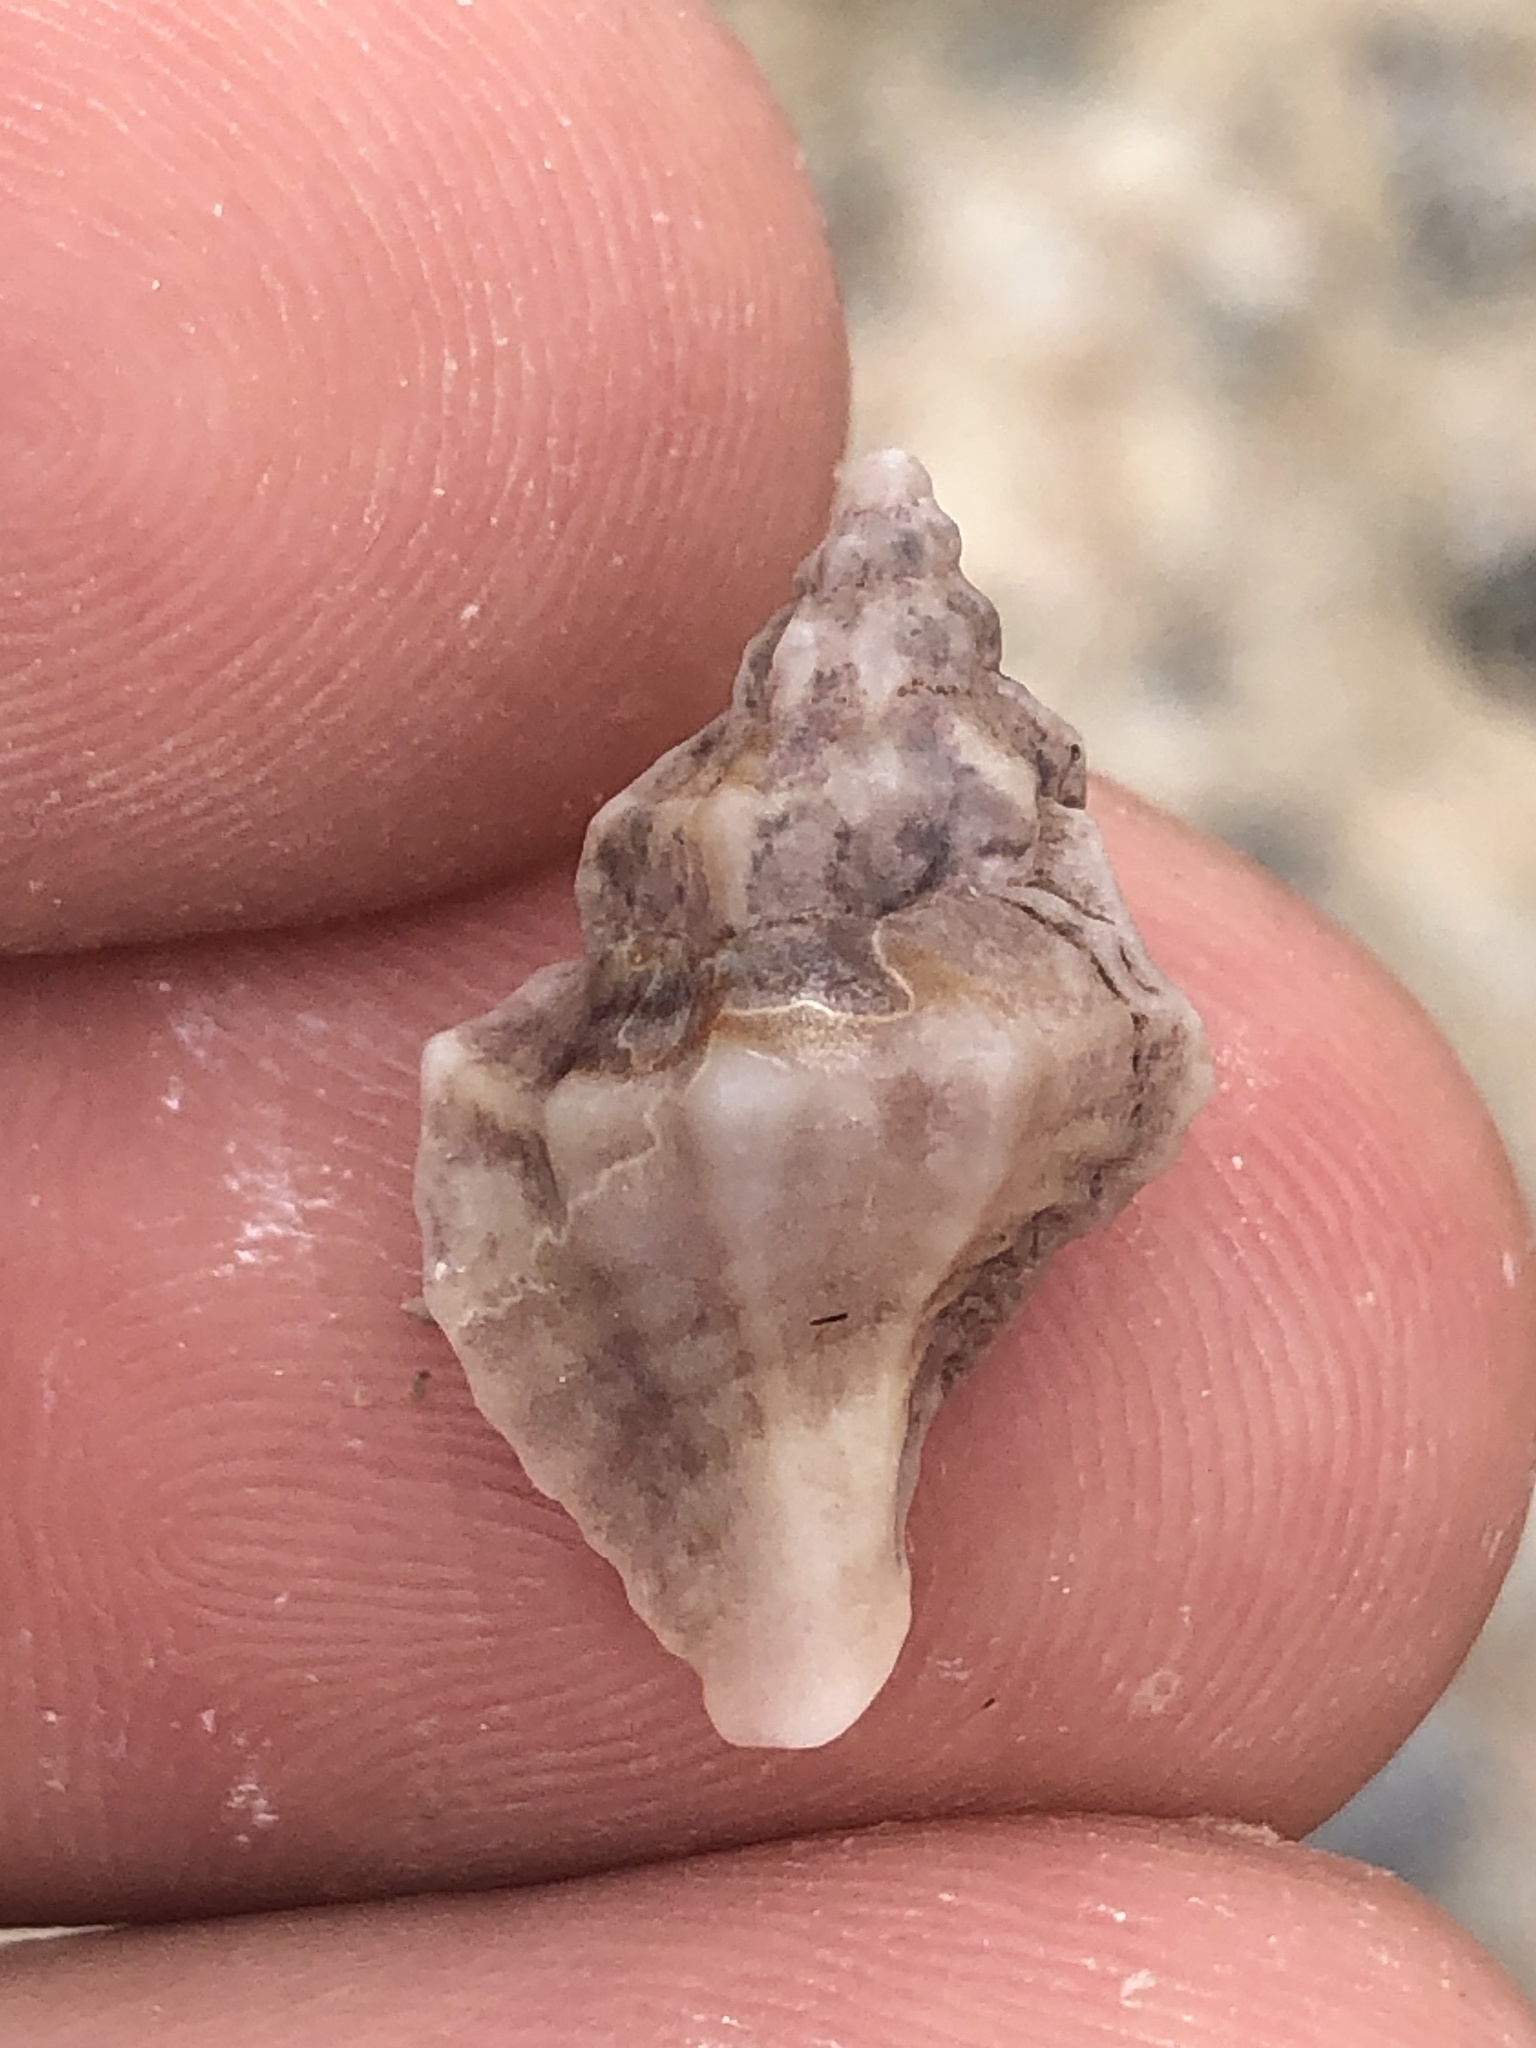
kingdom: Animalia
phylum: Mollusca
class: Gastropoda
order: Neogastropoda
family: Muricidae
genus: Eupleura
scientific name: Eupleura sulcidentata
